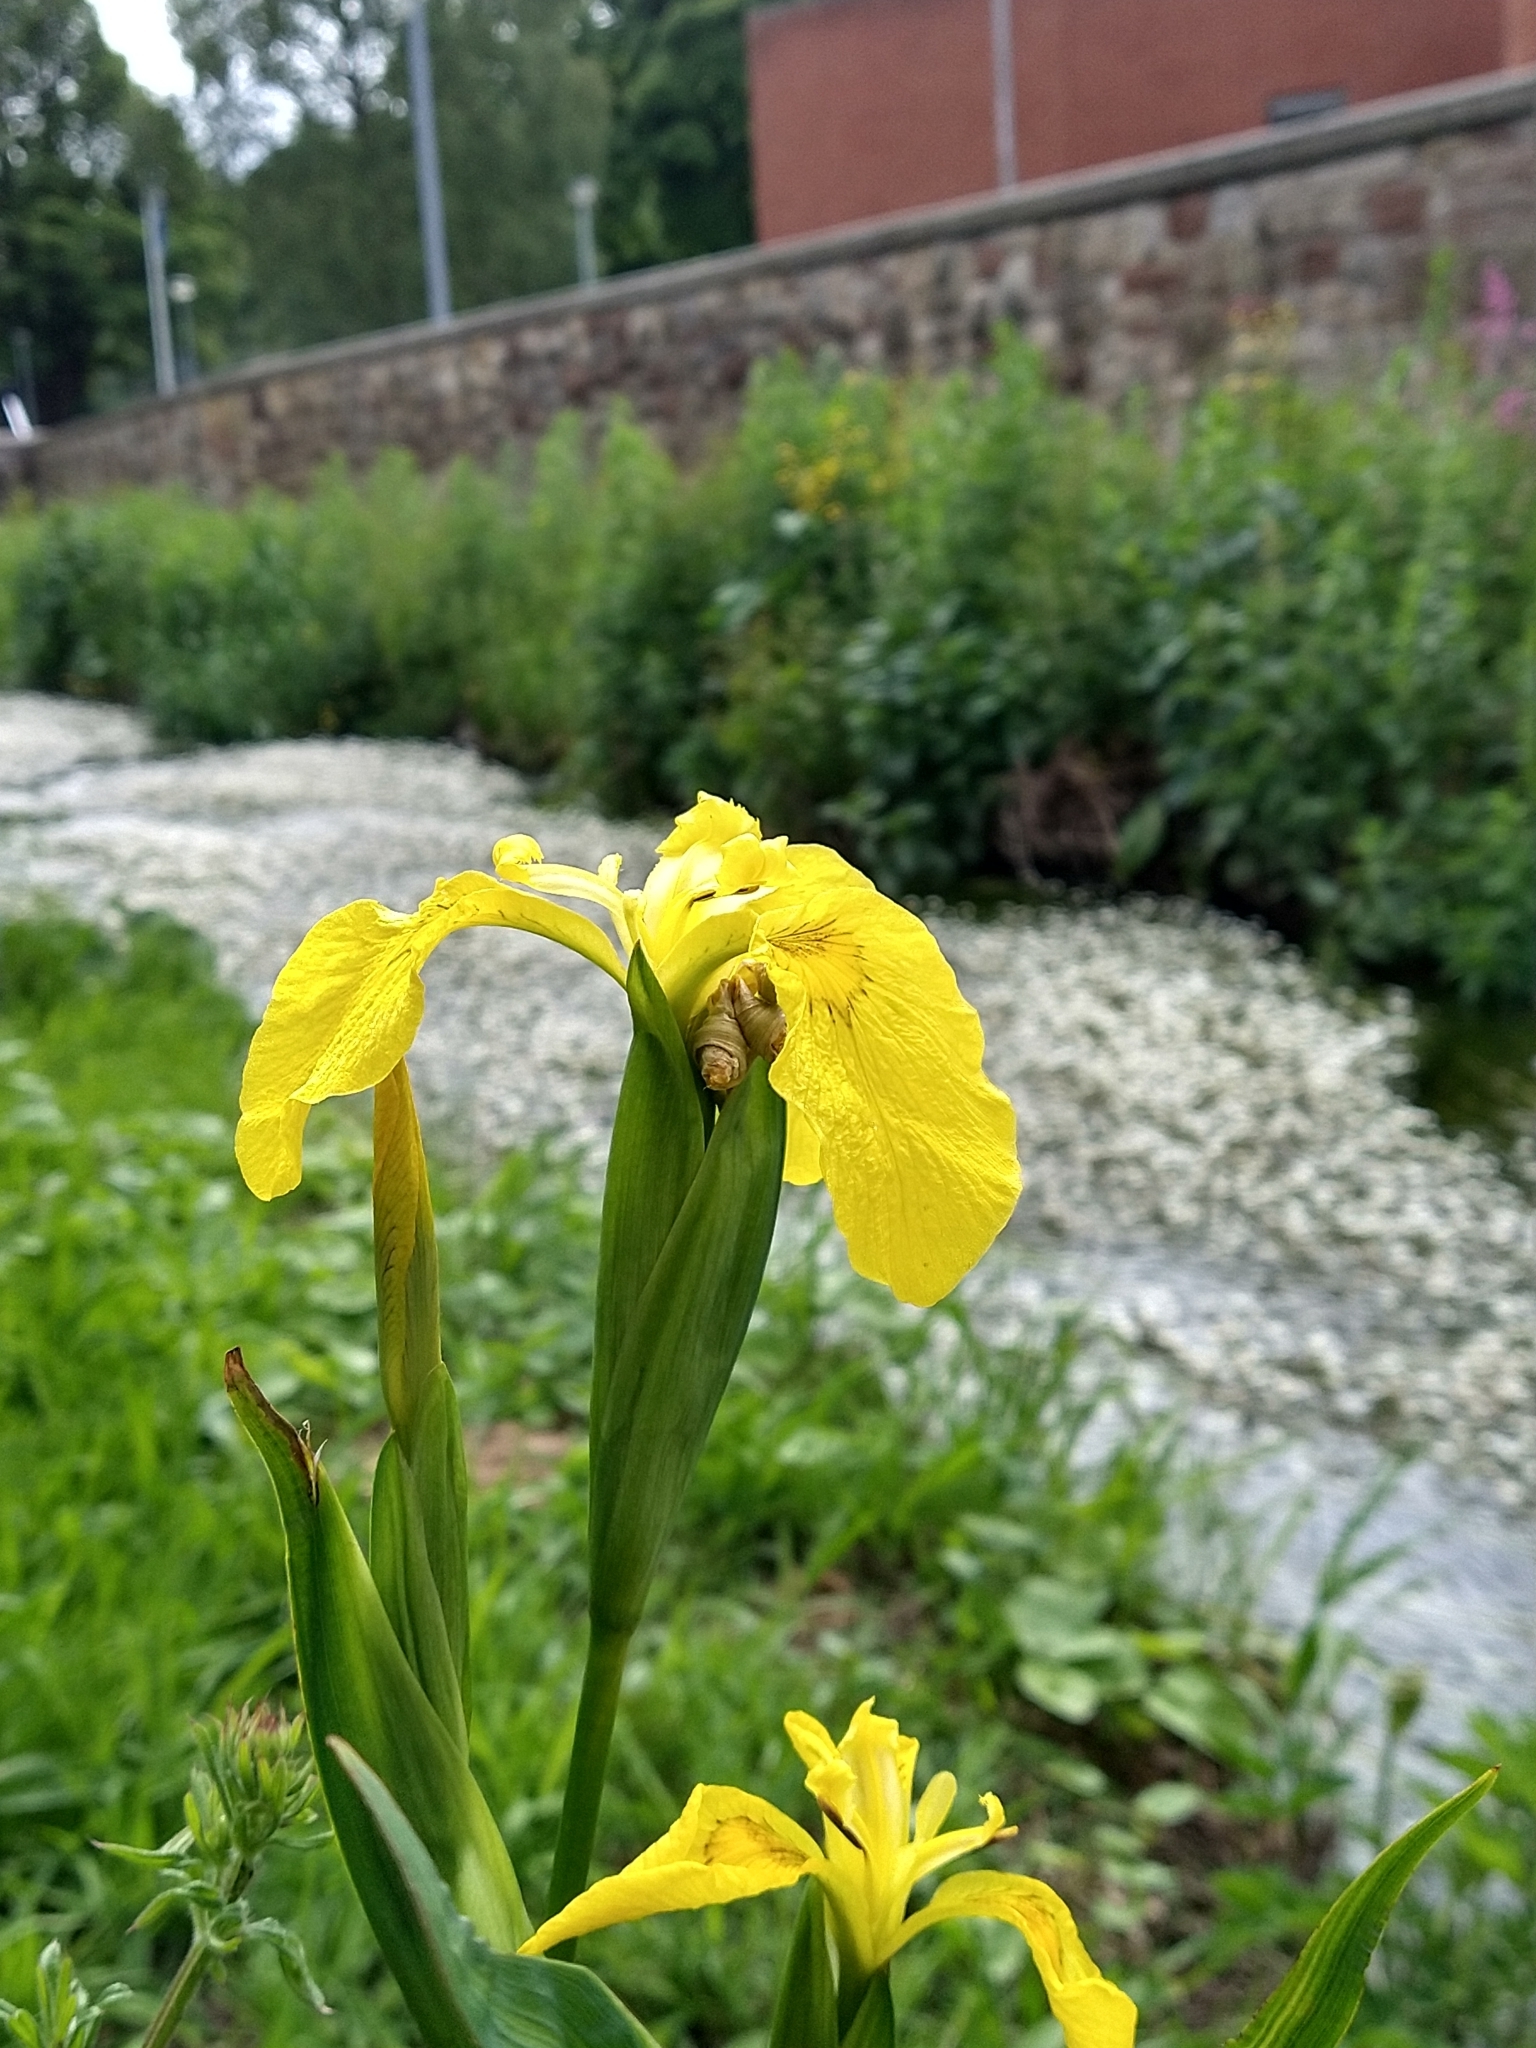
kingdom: Plantae
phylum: Tracheophyta
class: Liliopsida
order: Asparagales
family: Iridaceae
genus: Iris
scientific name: Iris pseudacorus
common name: Yellow flag
